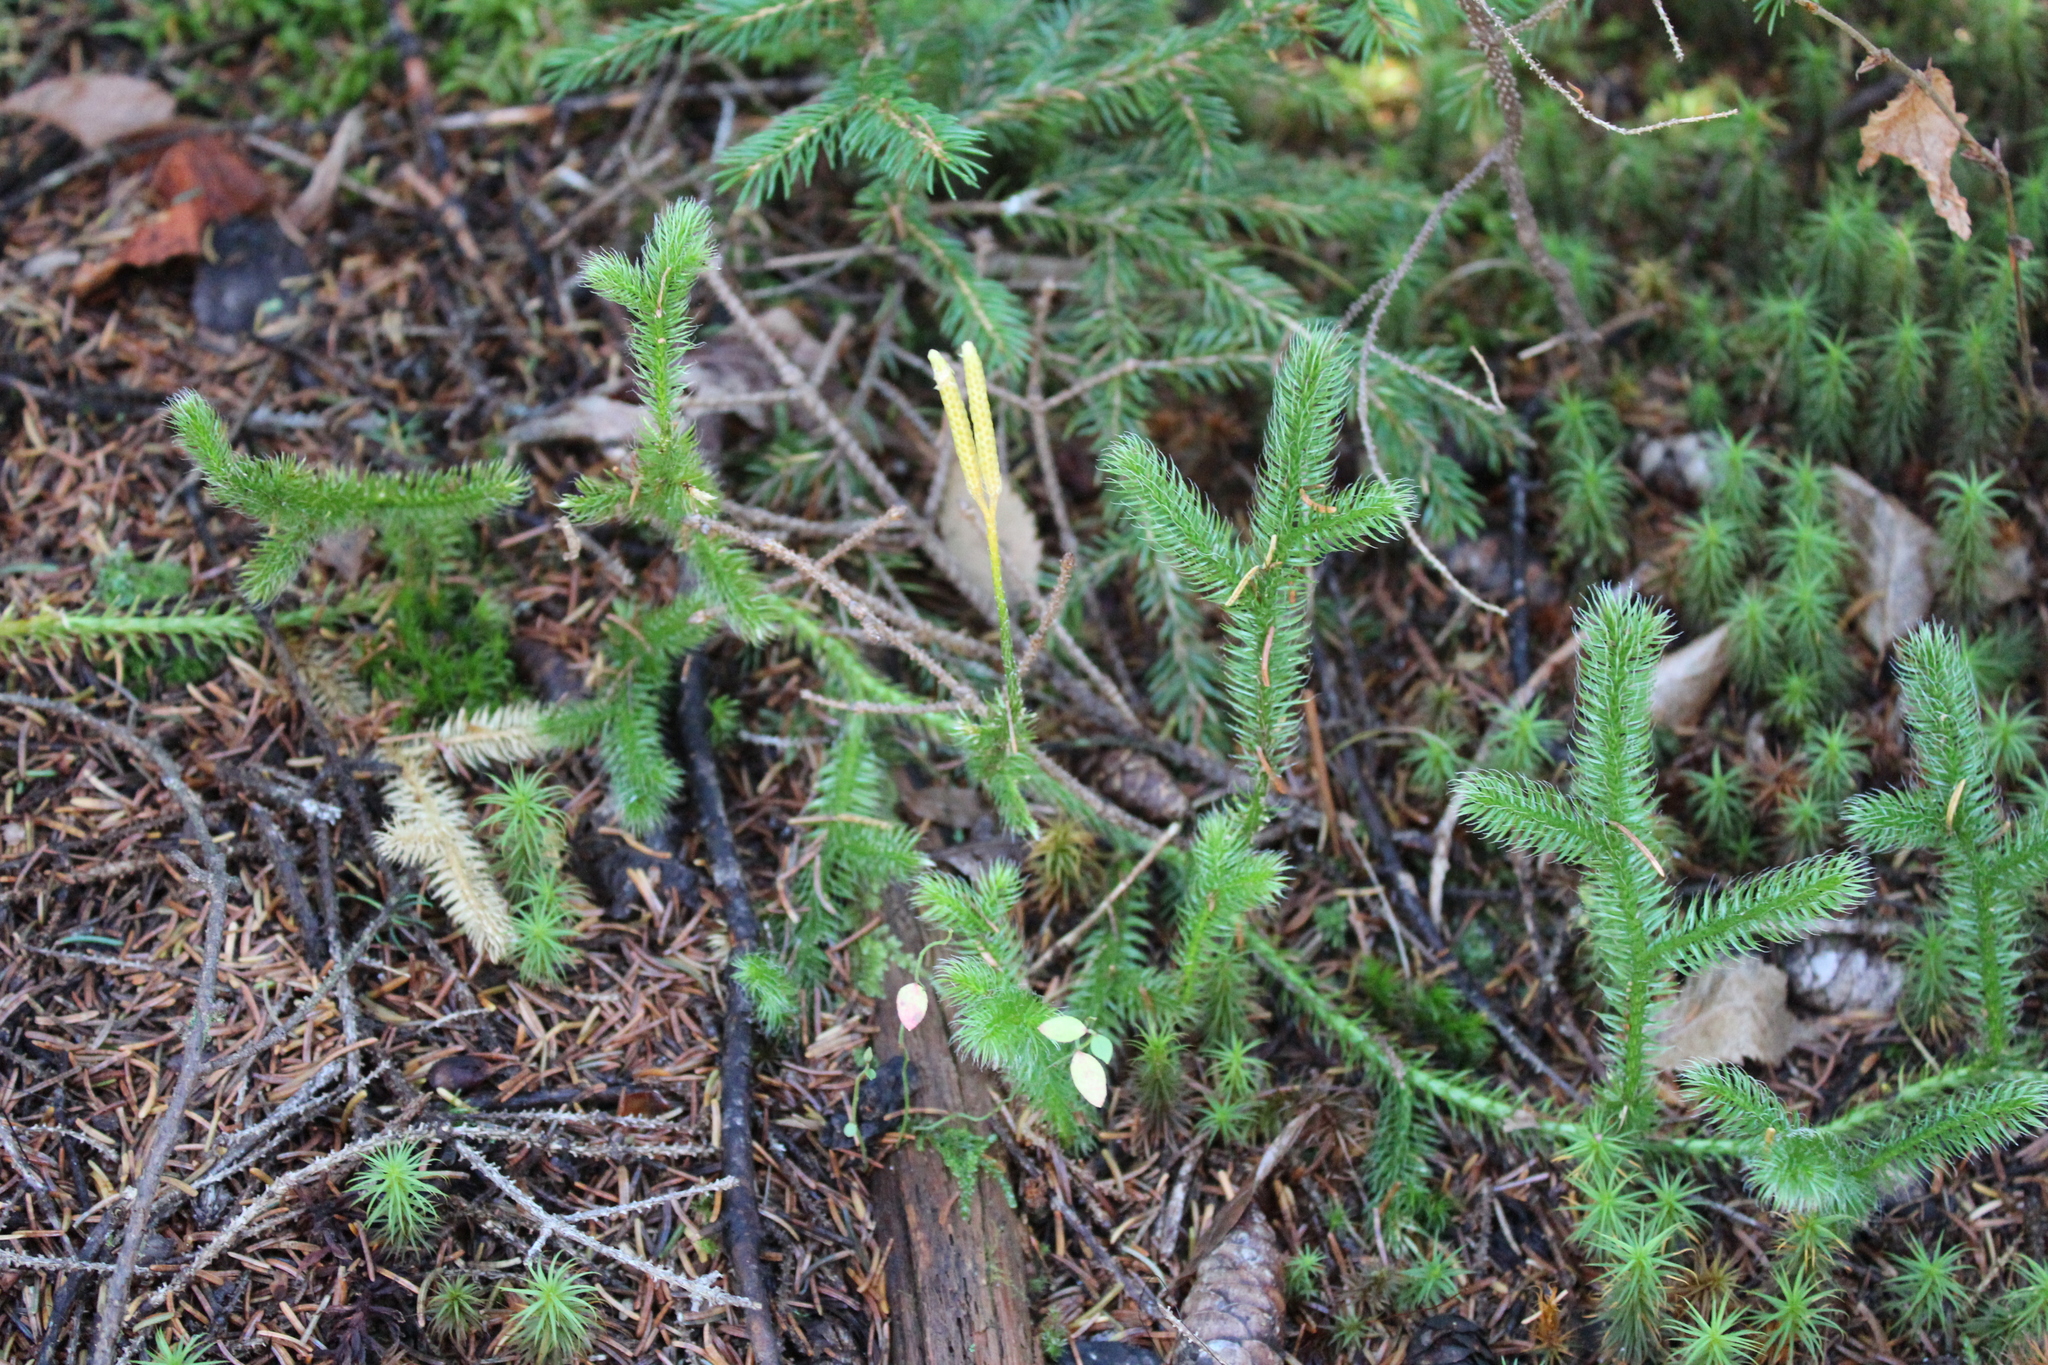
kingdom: Plantae
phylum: Tracheophyta
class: Lycopodiopsida
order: Lycopodiales
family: Lycopodiaceae
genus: Lycopodium
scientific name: Lycopodium clavatum
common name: Stag's-horn clubmoss
